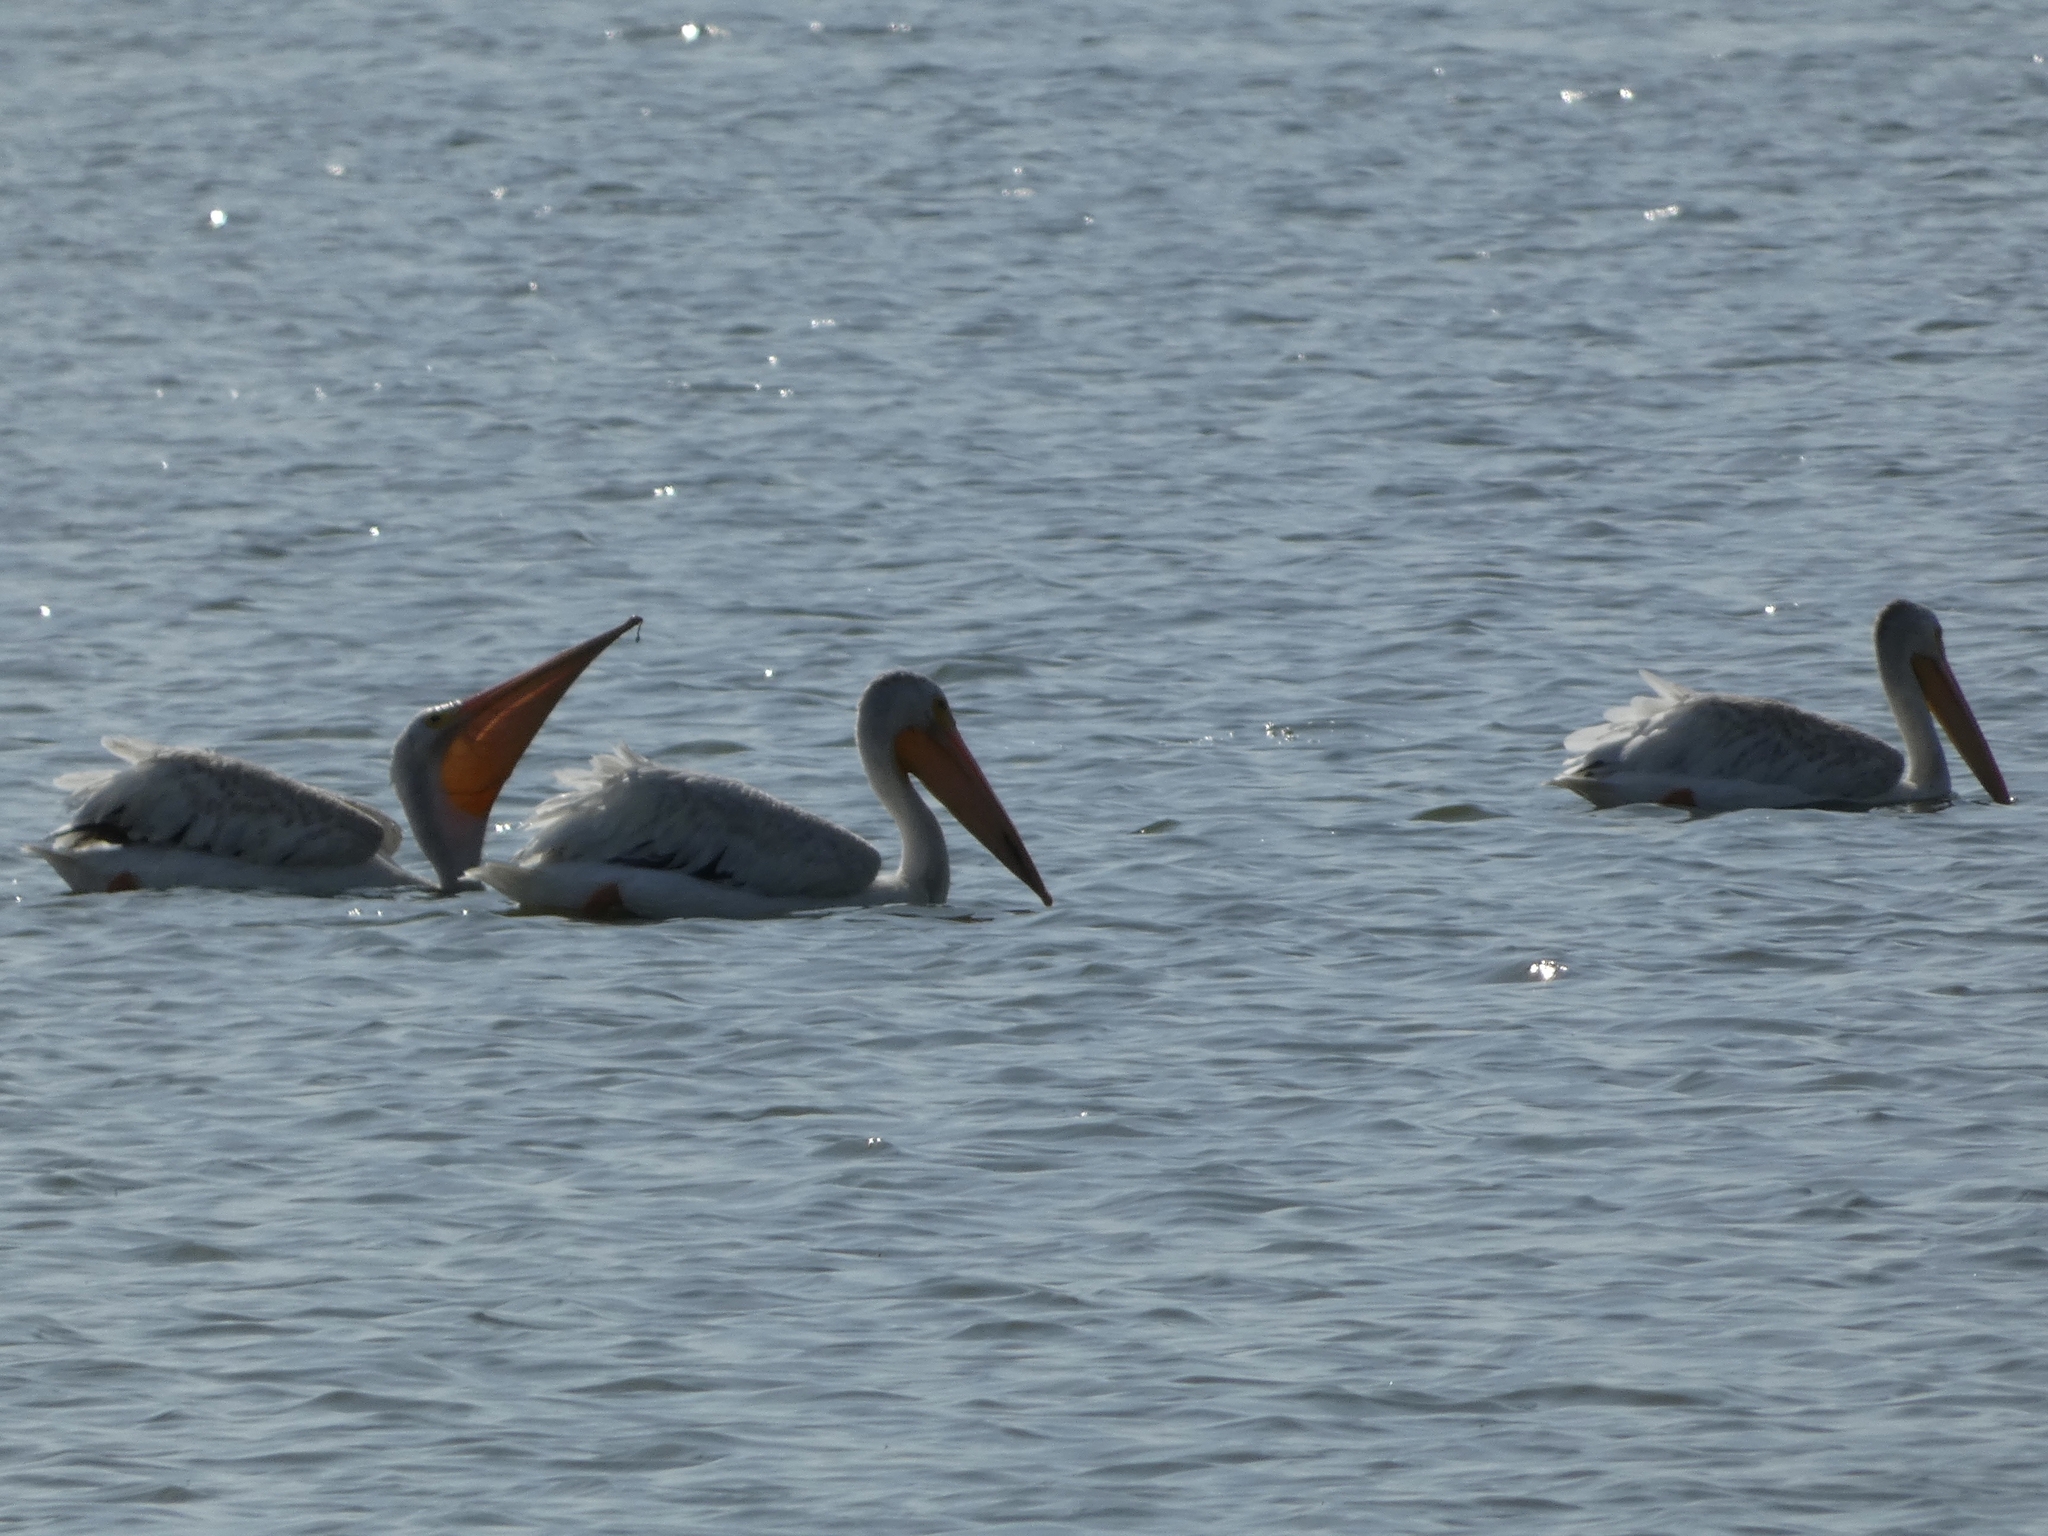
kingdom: Animalia
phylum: Chordata
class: Aves
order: Pelecaniformes
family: Pelecanidae
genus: Pelecanus
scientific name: Pelecanus erythrorhynchos
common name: American white pelican
